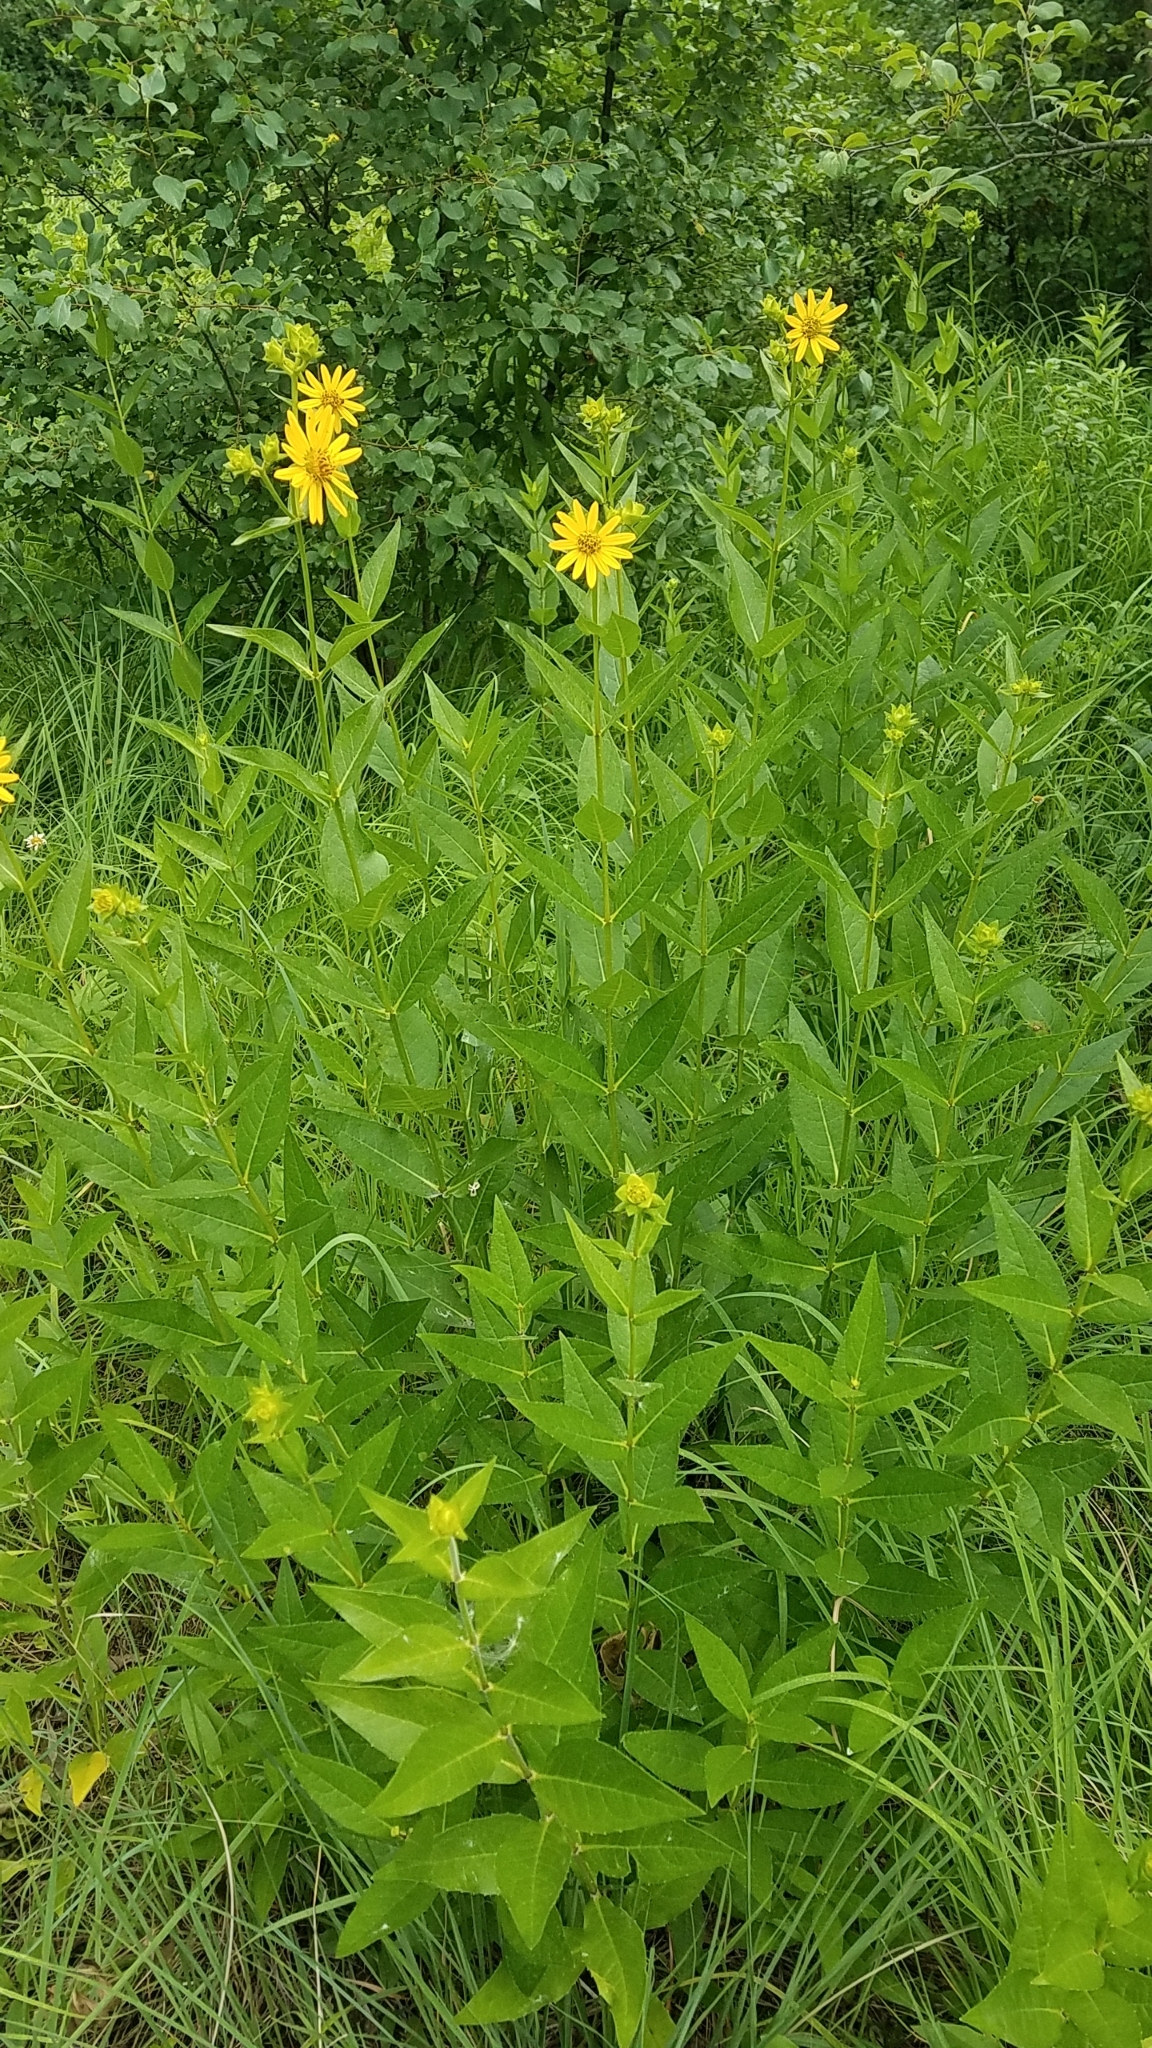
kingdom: Plantae
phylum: Tracheophyta
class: Magnoliopsida
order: Asterales
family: Asteraceae
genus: Silphium
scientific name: Silphium integrifolium
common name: Whole-leaf rosinweed
